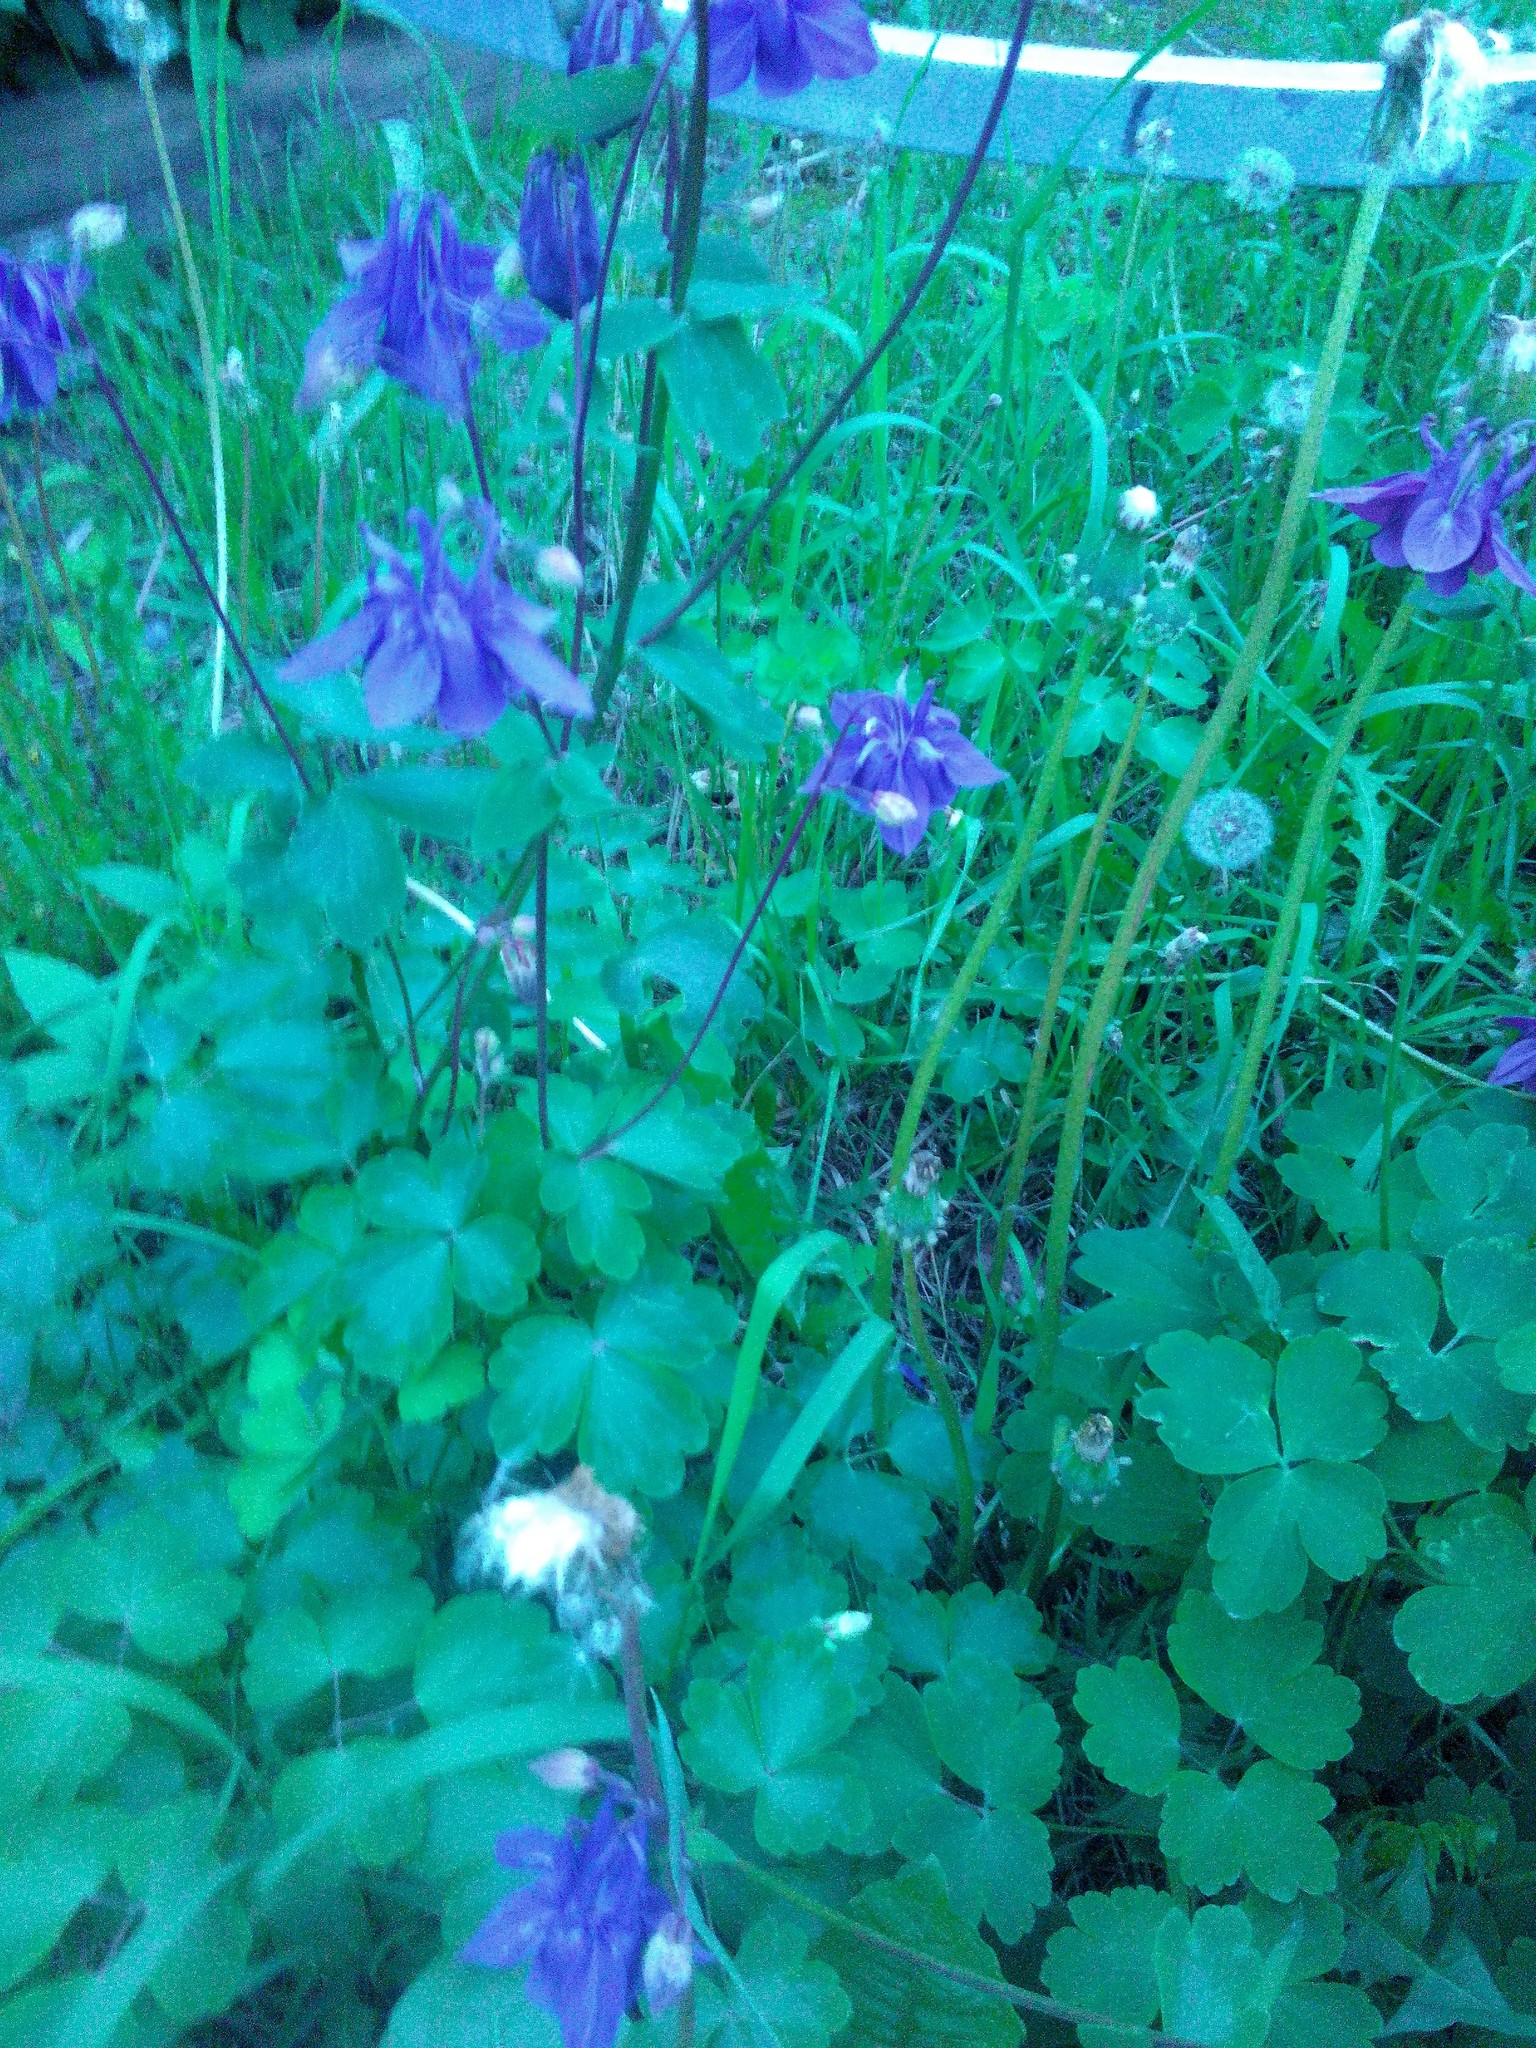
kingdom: Plantae
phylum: Tracheophyta
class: Magnoliopsida
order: Ranunculales
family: Ranunculaceae
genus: Aquilegia
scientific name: Aquilegia vulgaris
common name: Columbine
